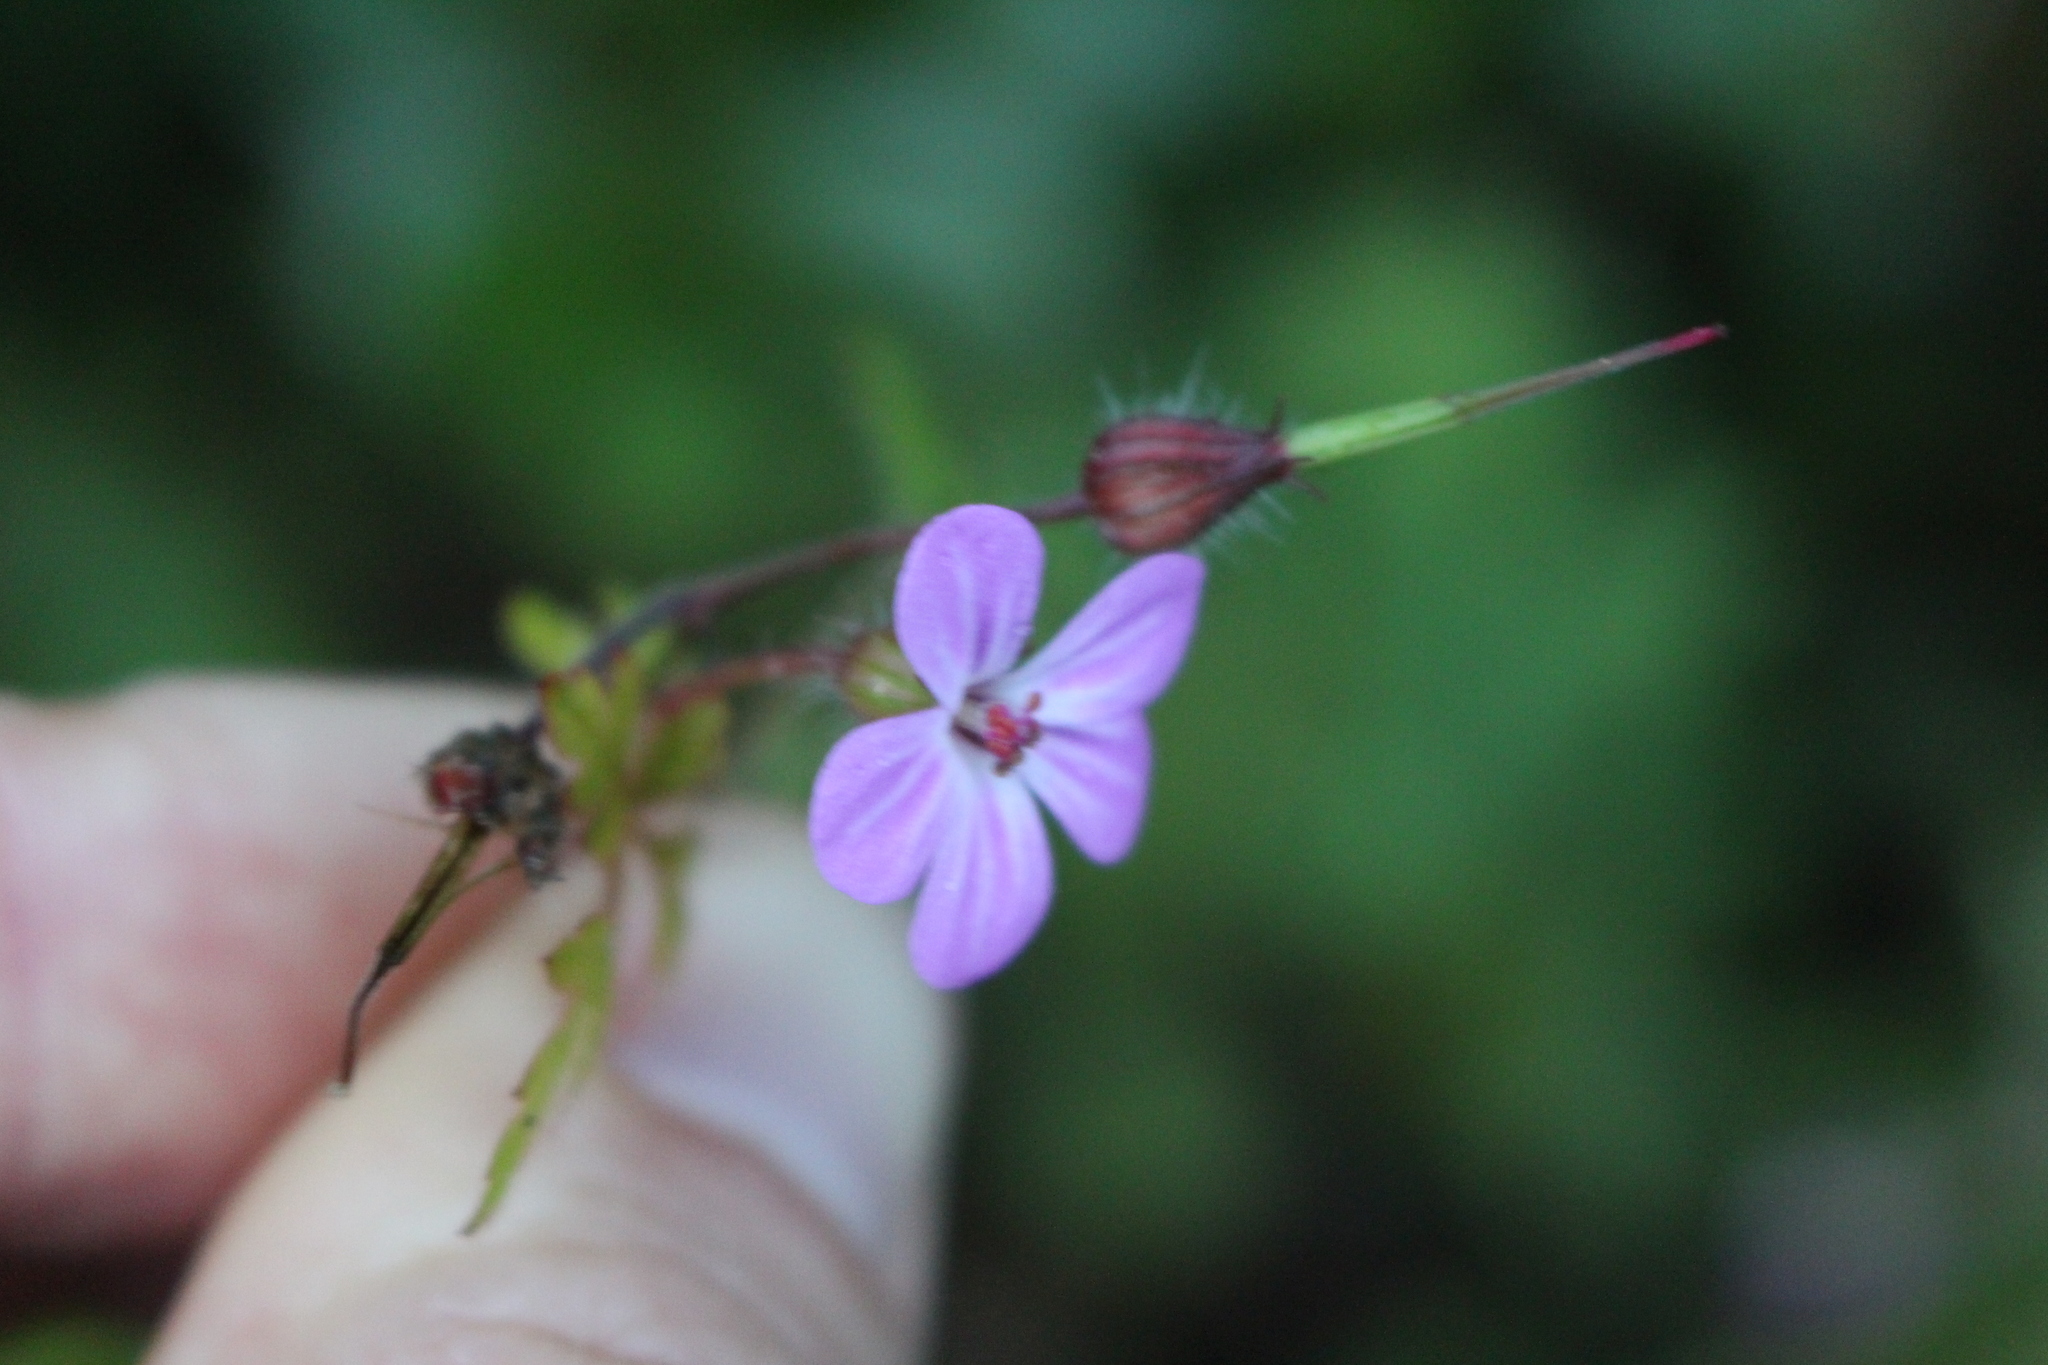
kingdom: Plantae
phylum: Tracheophyta
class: Magnoliopsida
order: Geraniales
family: Geraniaceae
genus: Geranium
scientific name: Geranium robertianum
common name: Herb-robert
